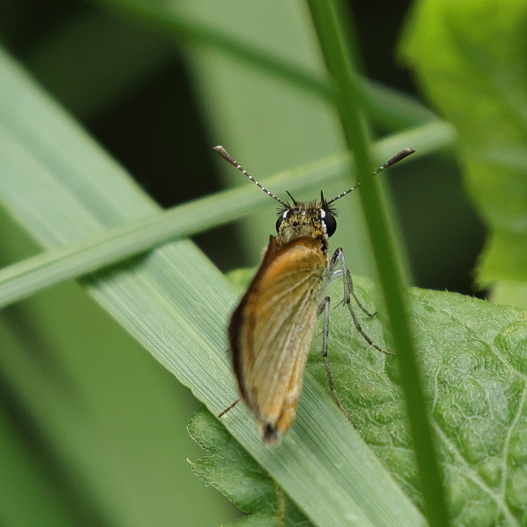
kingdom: Animalia
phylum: Arthropoda
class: Insecta
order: Lepidoptera
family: Hesperiidae
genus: Ancyloxypha
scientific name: Ancyloxypha numitor
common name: Least skipper
